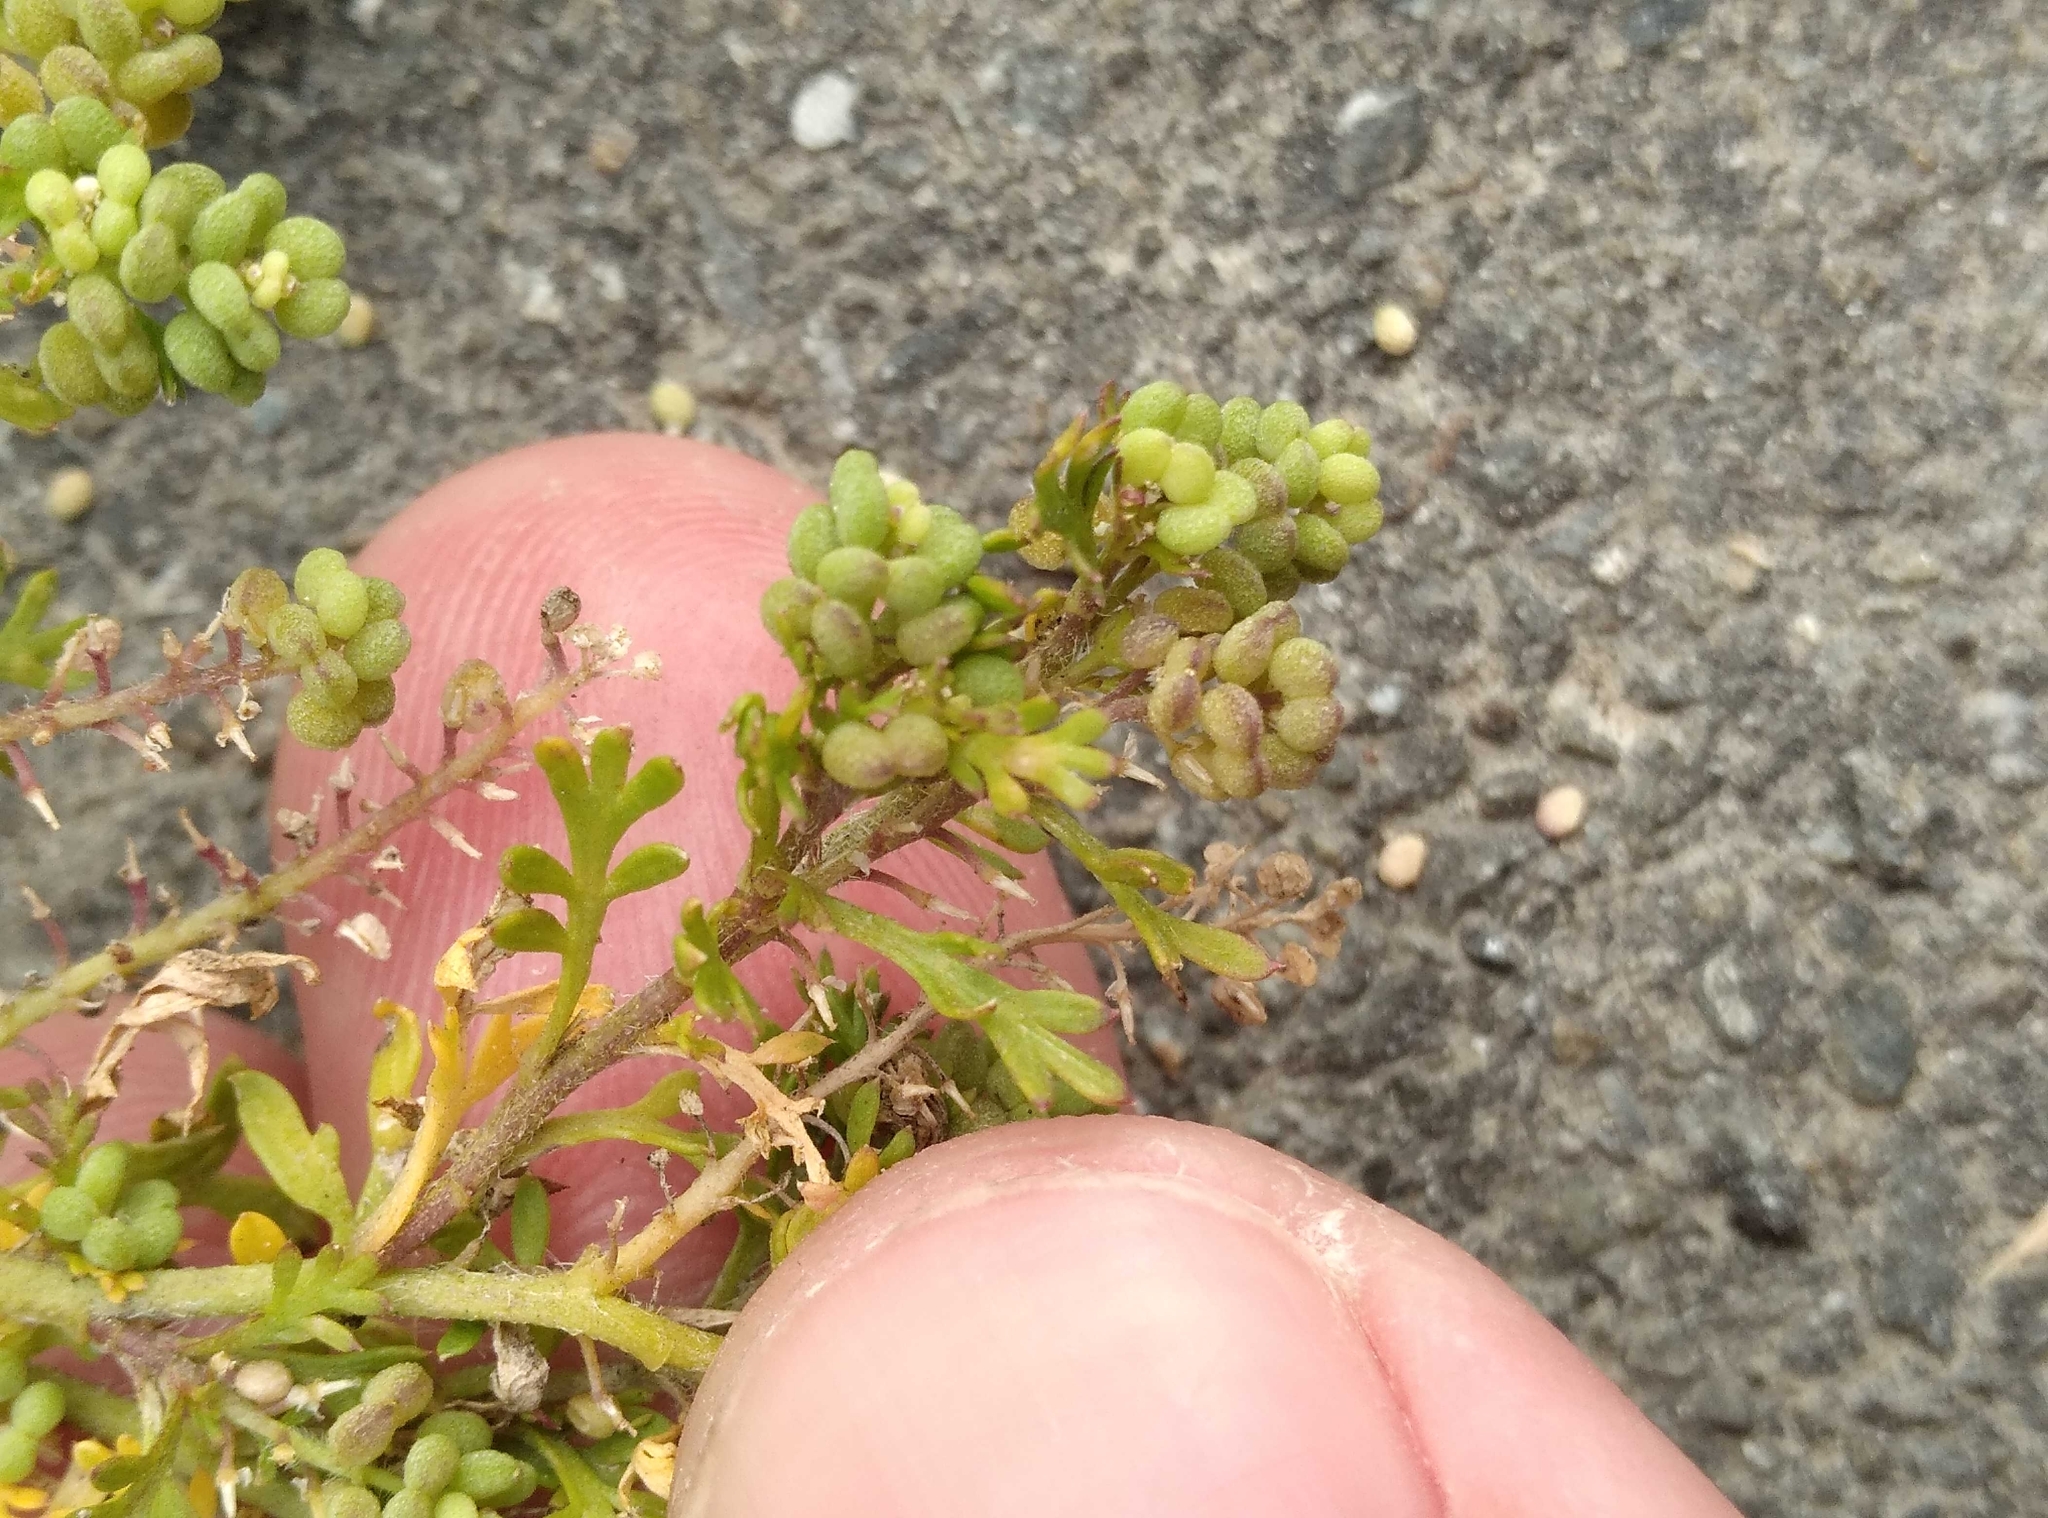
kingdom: Plantae
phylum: Tracheophyta
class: Magnoliopsida
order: Brassicales
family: Brassicaceae
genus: Lepidium
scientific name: Lepidium didymum
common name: Lesser swinecress
